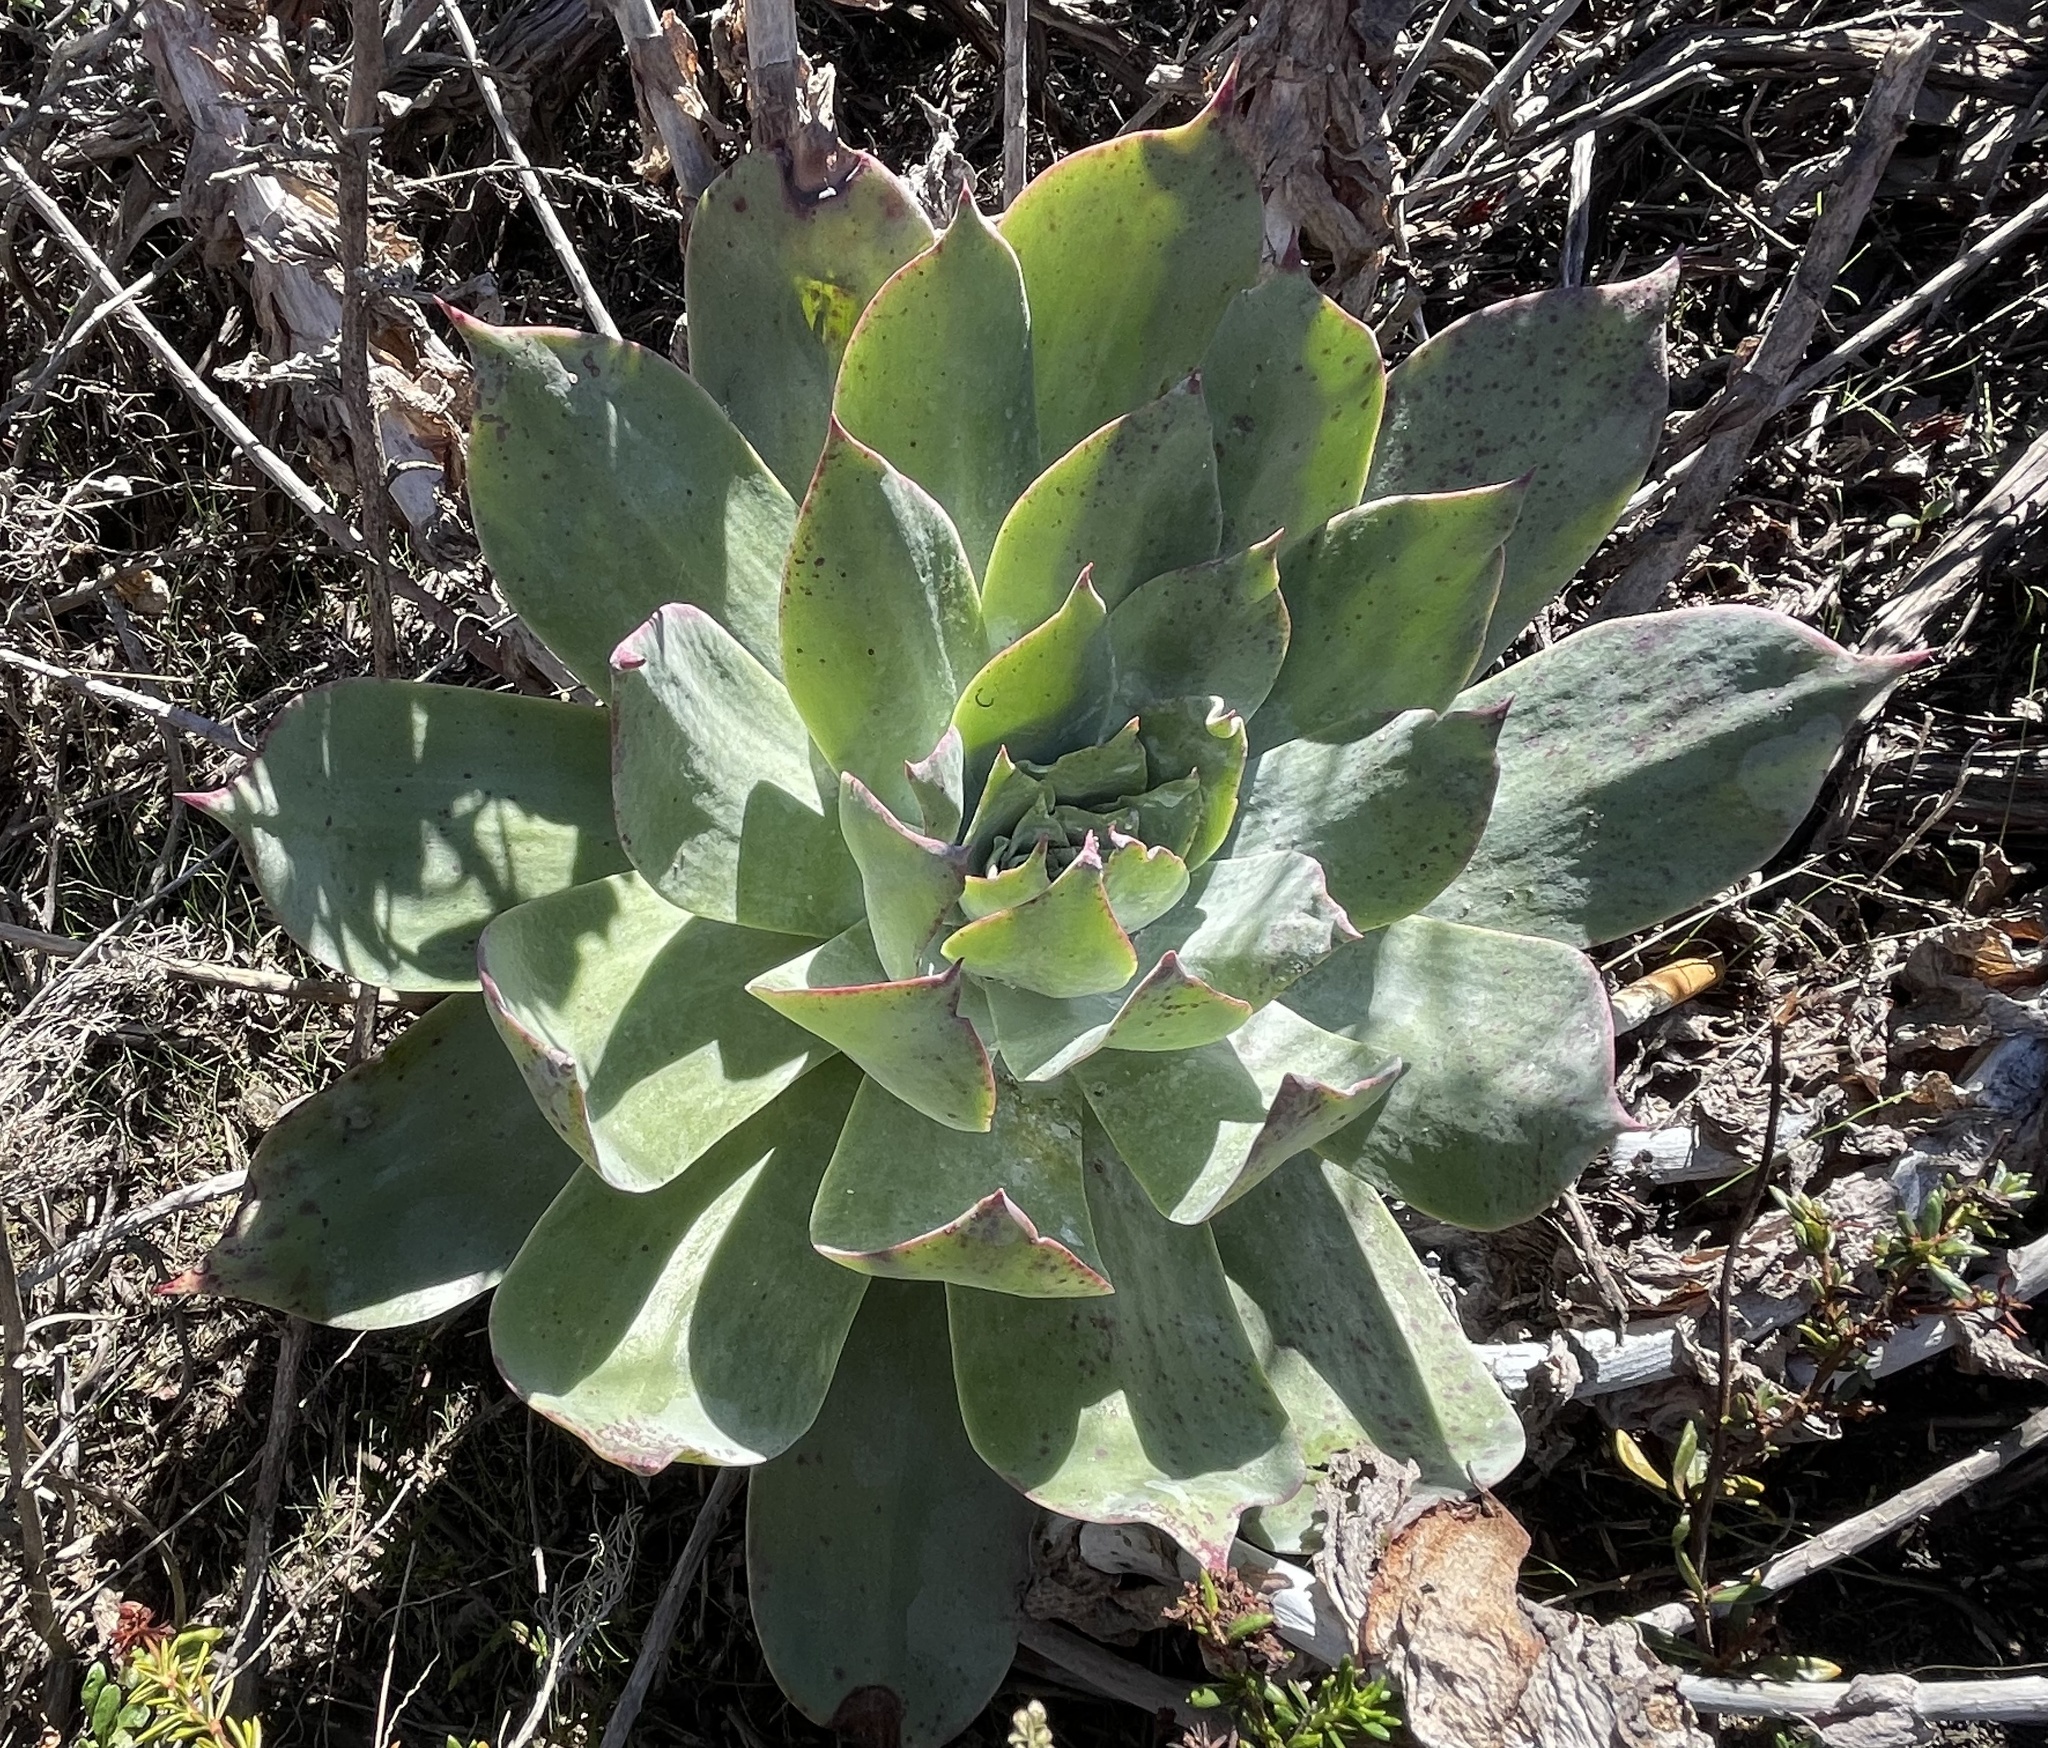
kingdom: Plantae
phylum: Tracheophyta
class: Magnoliopsida
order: Saxifragales
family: Crassulaceae
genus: Dudleya
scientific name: Dudleya pulverulenta
